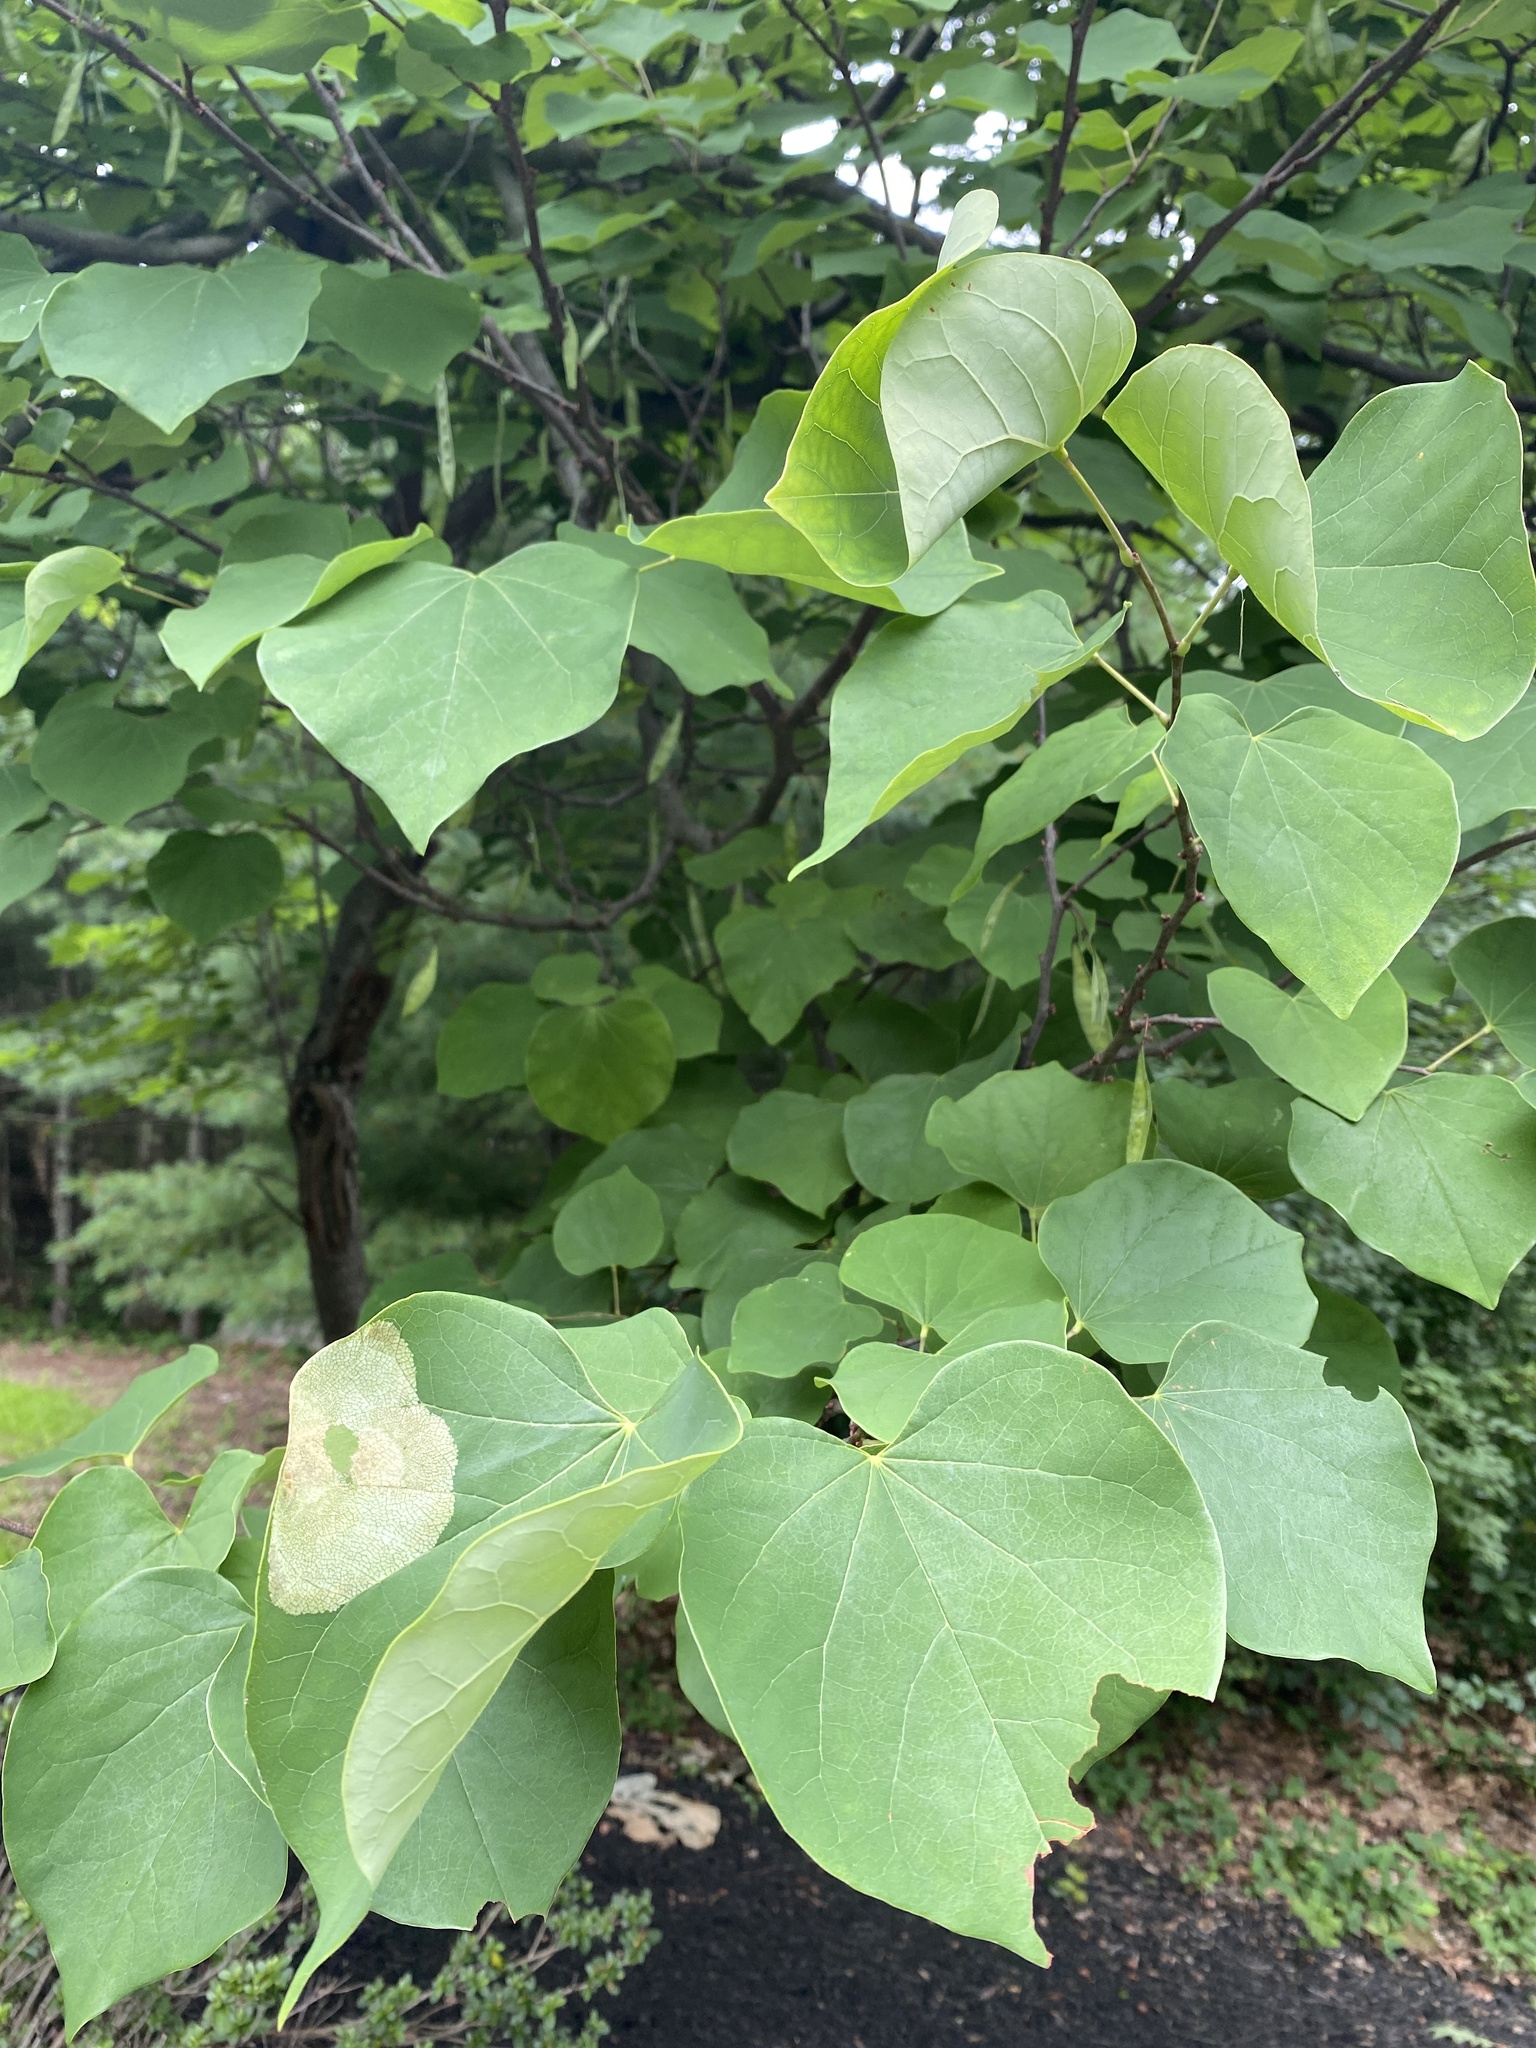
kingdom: Plantae
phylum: Tracheophyta
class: Magnoliopsida
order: Fabales
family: Fabaceae
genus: Cercis
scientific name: Cercis canadensis
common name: Eastern redbud
